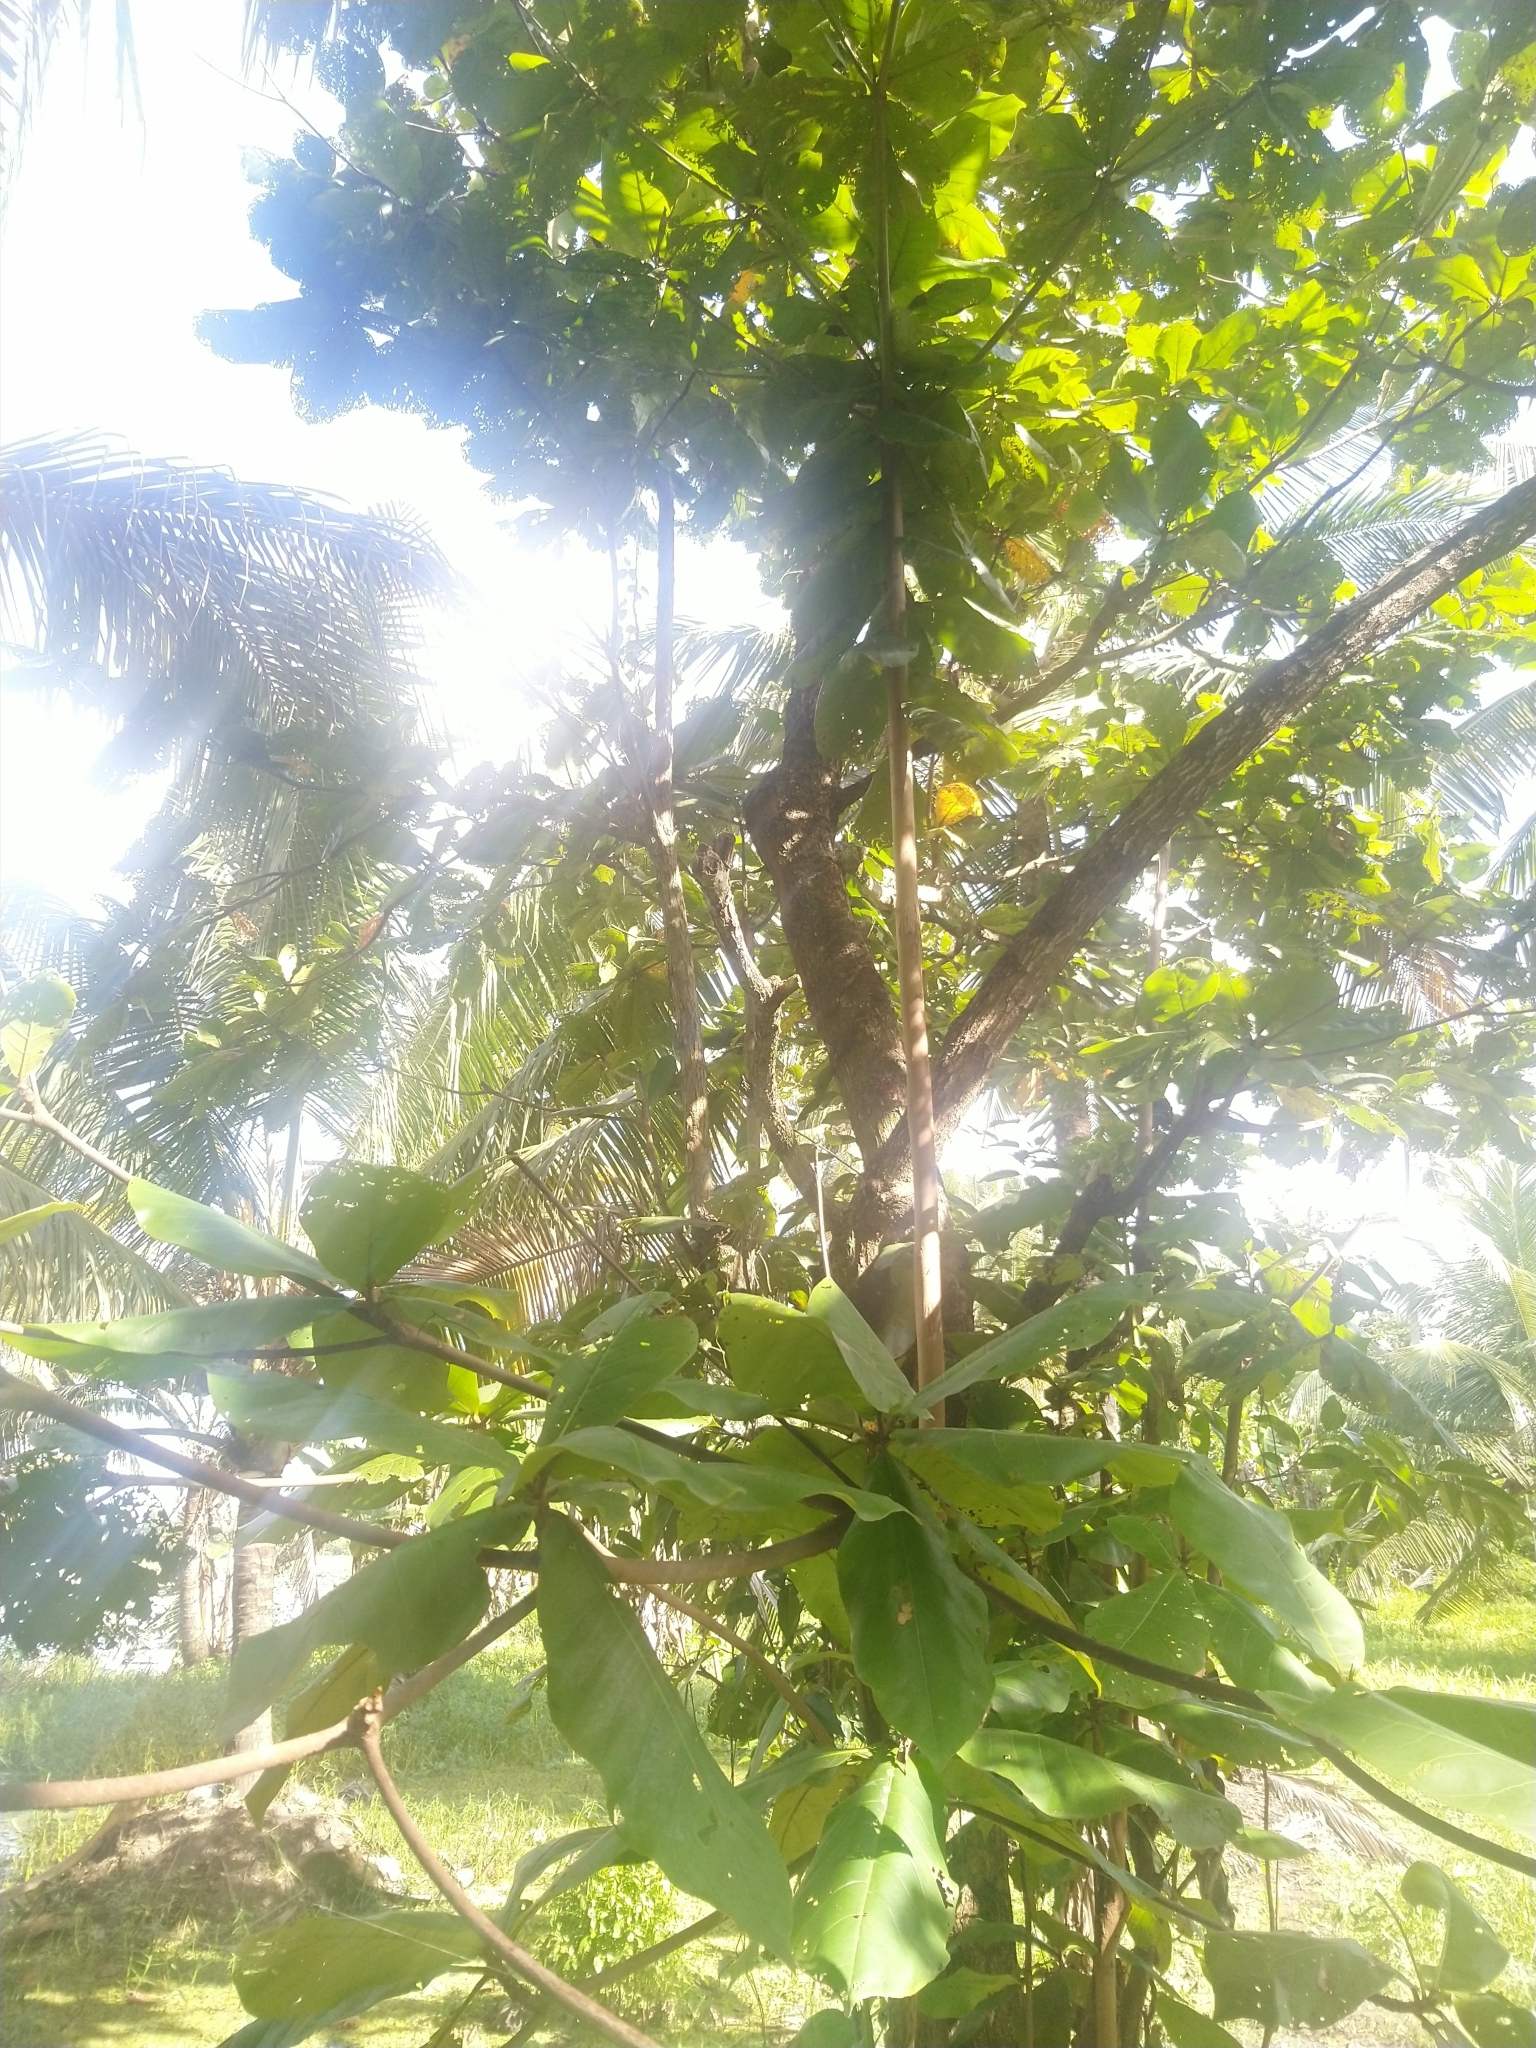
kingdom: Plantae
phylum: Tracheophyta
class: Magnoliopsida
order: Myrtales
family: Combretaceae
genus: Terminalia
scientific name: Terminalia catappa
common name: Tropical almond
